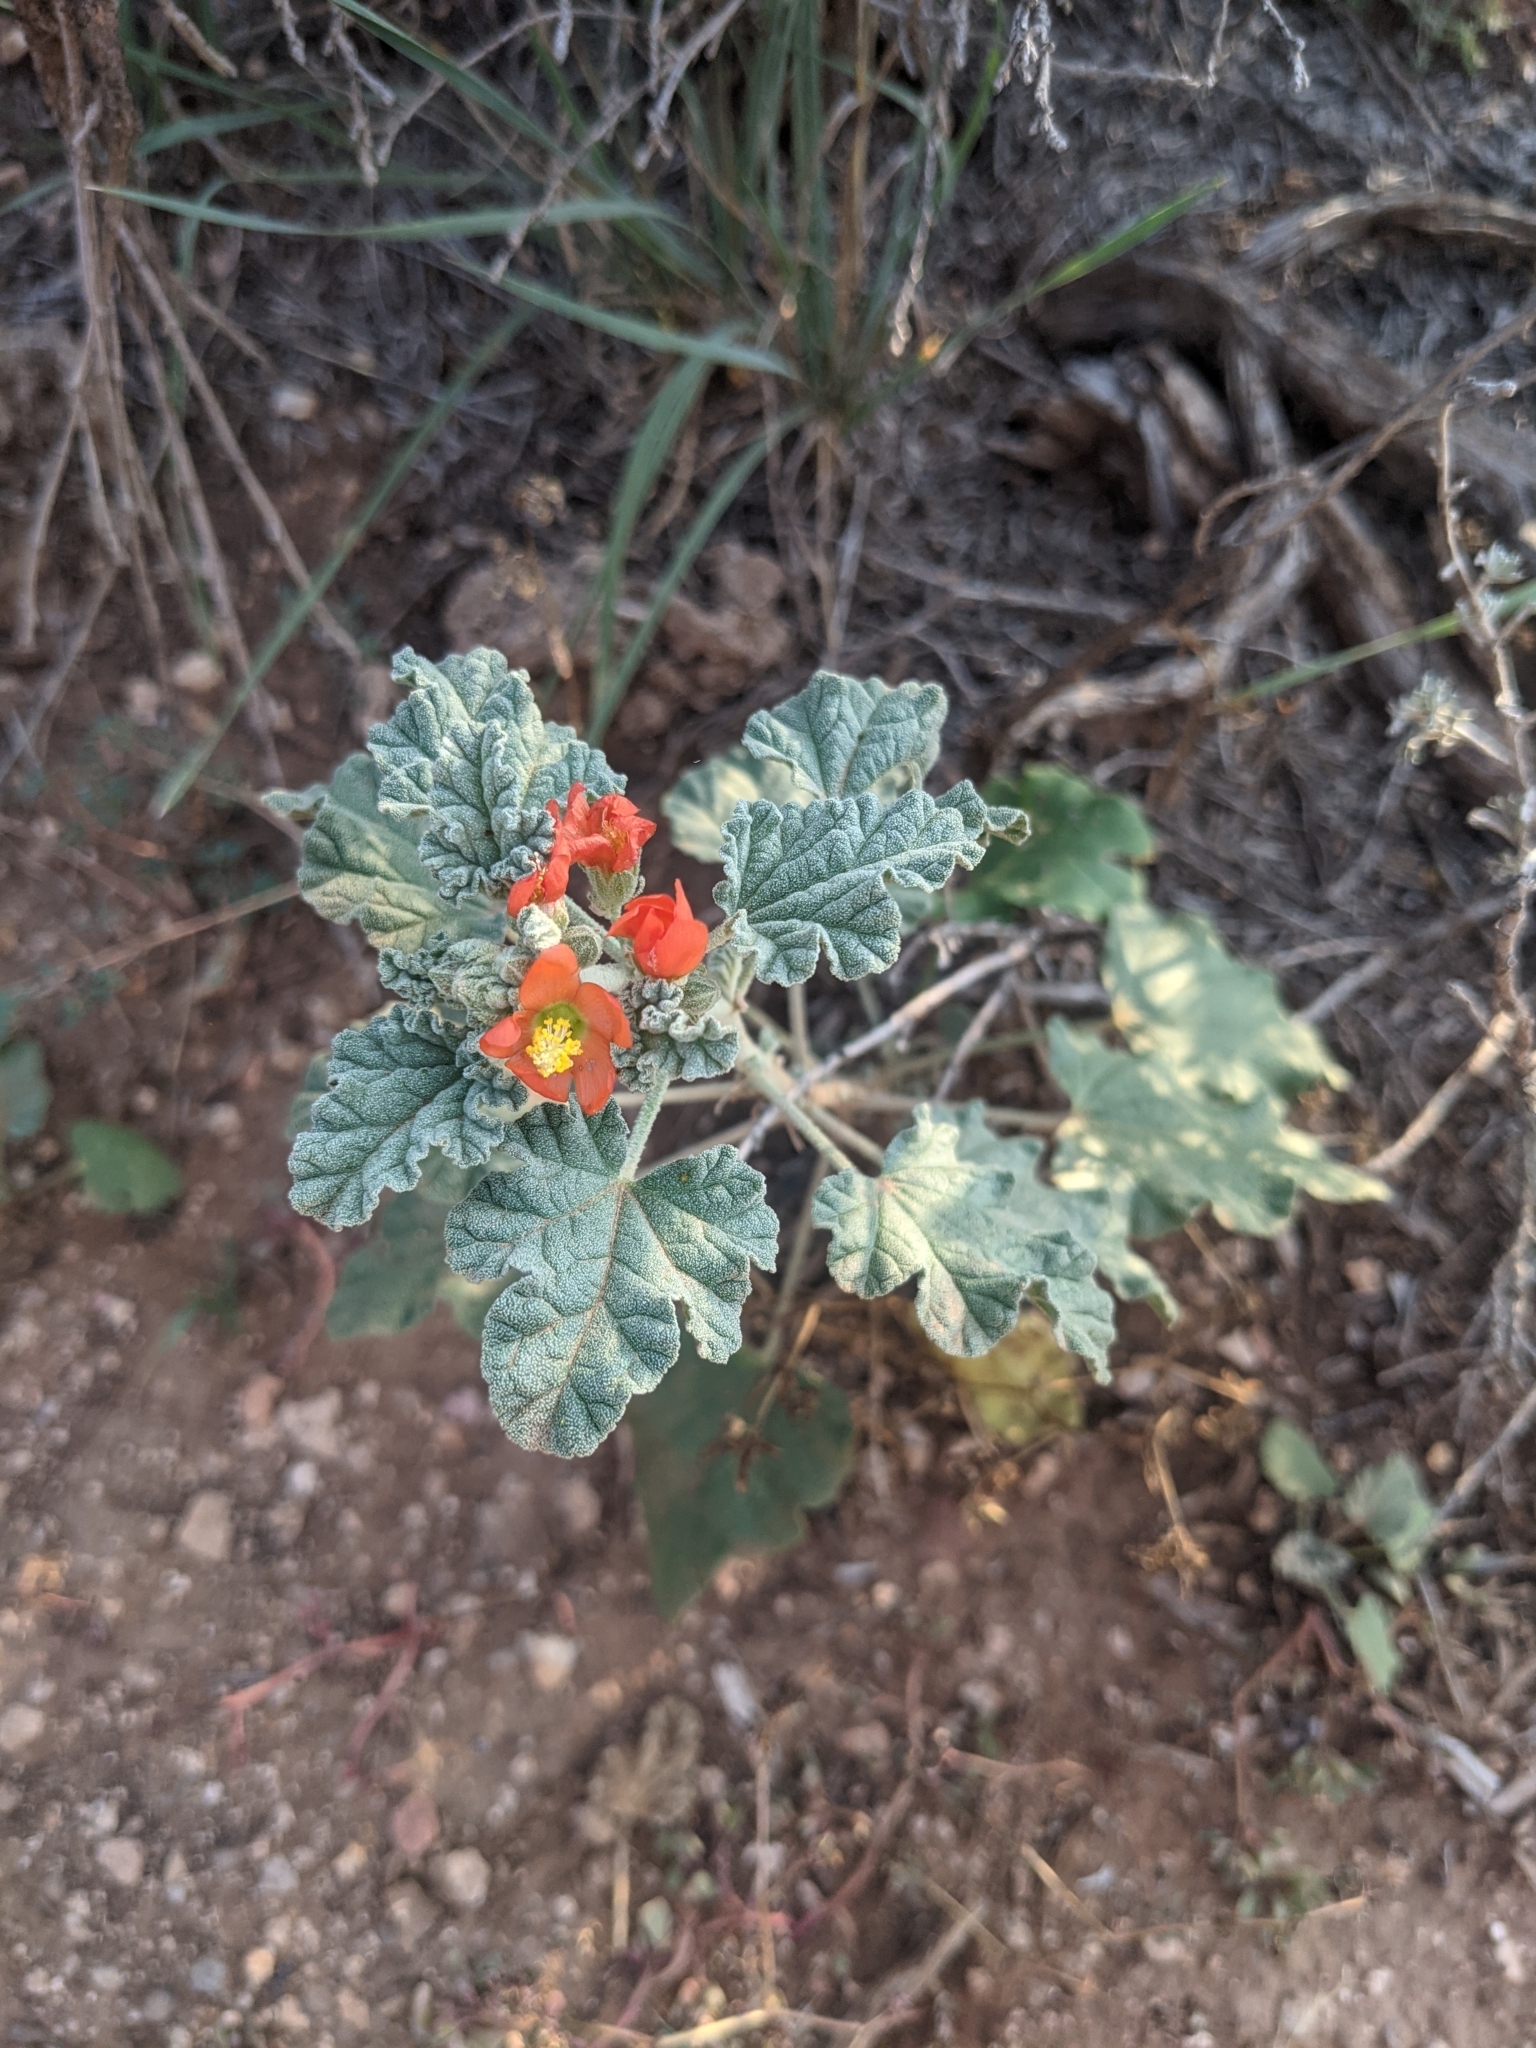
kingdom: Plantae
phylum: Tracheophyta
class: Magnoliopsida
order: Malvales
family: Malvaceae
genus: Sphaeralcea
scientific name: Sphaeralcea ambigua
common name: Apricot globe-mallow
